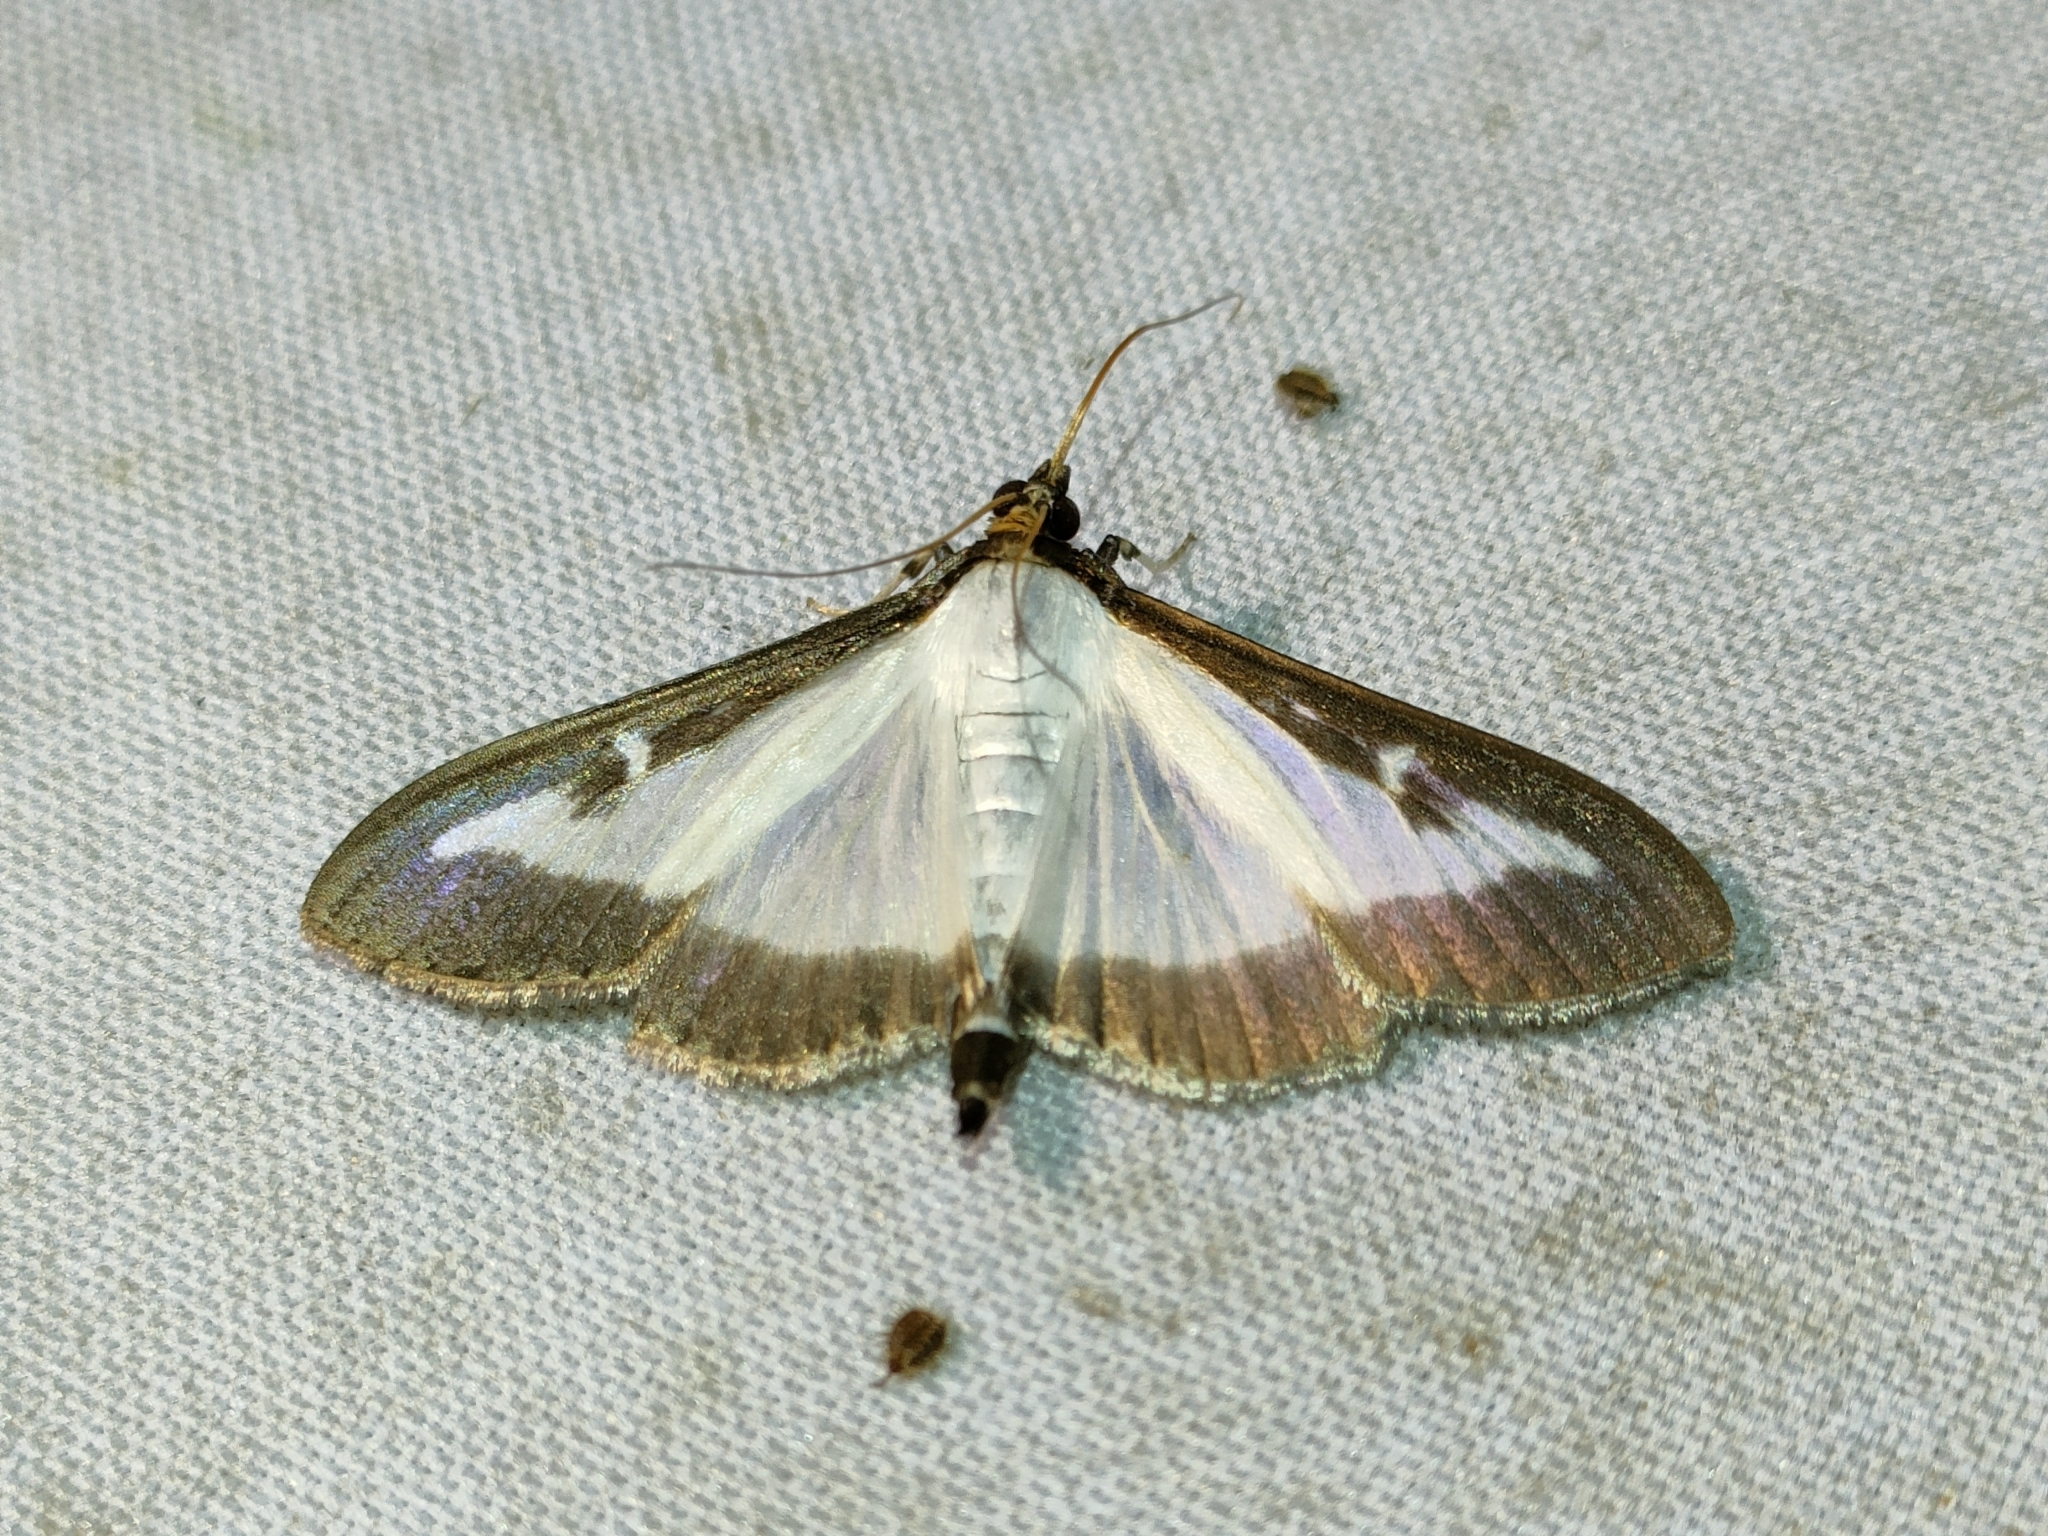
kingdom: Animalia
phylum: Arthropoda
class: Insecta
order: Lepidoptera
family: Crambidae
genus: Cydalima
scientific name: Cydalima perspectalis
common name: Box tree moth
